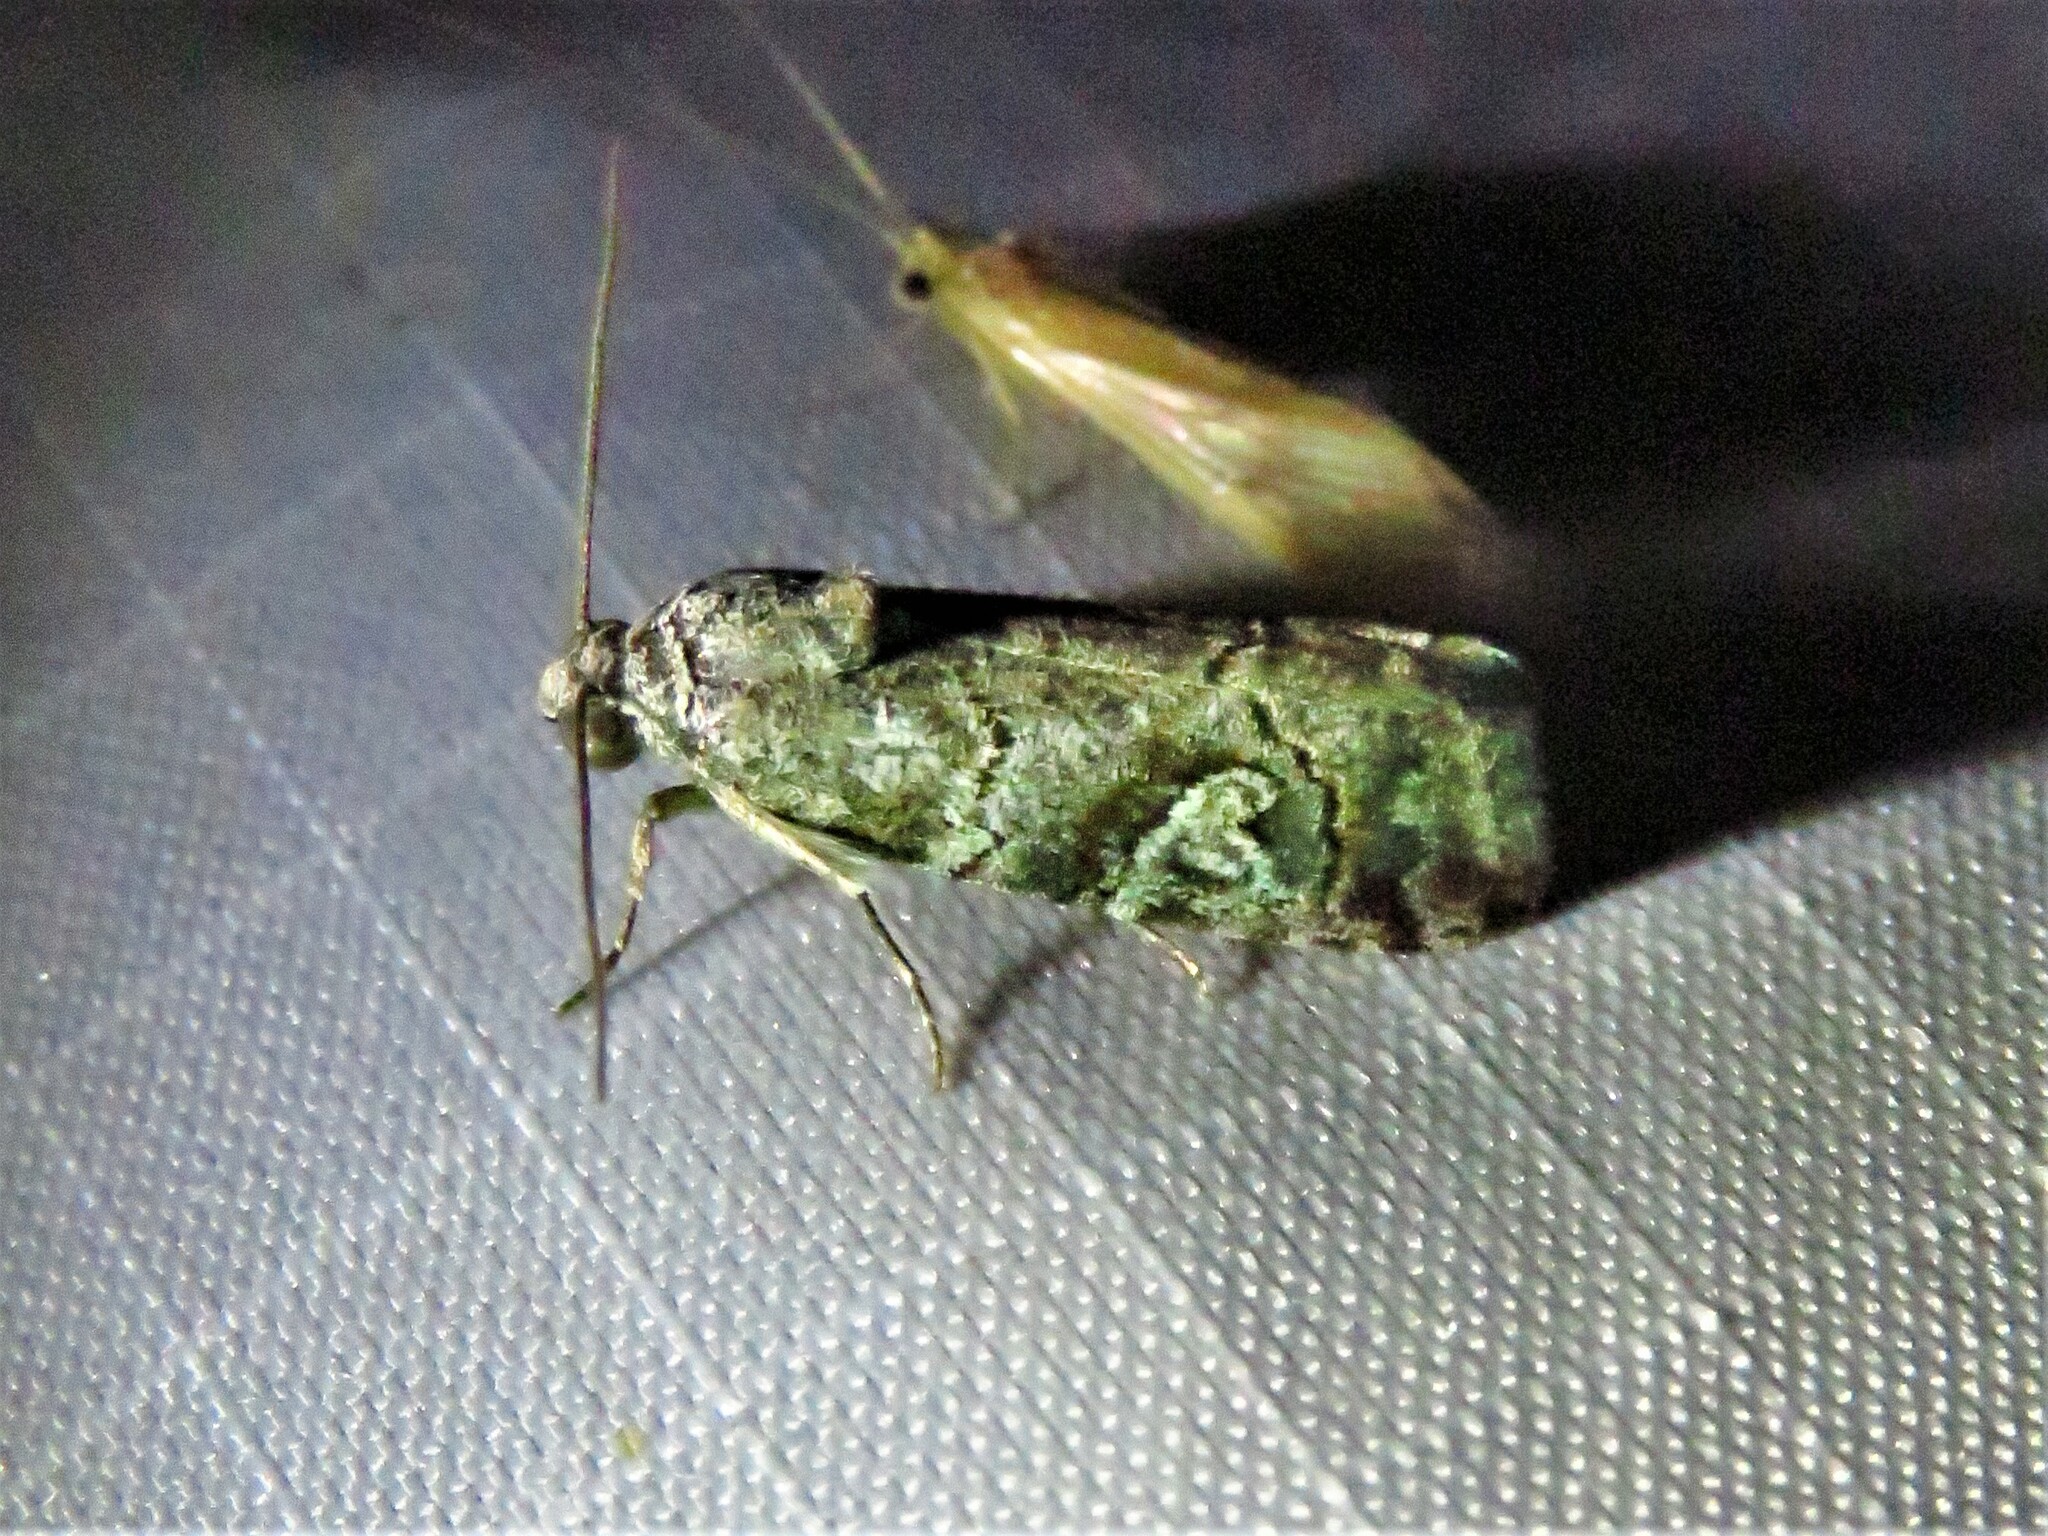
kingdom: Animalia
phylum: Arthropoda
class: Insecta
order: Lepidoptera
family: Noctuidae
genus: Metaponpneumata
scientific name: Metaponpneumata rogenhoferi
